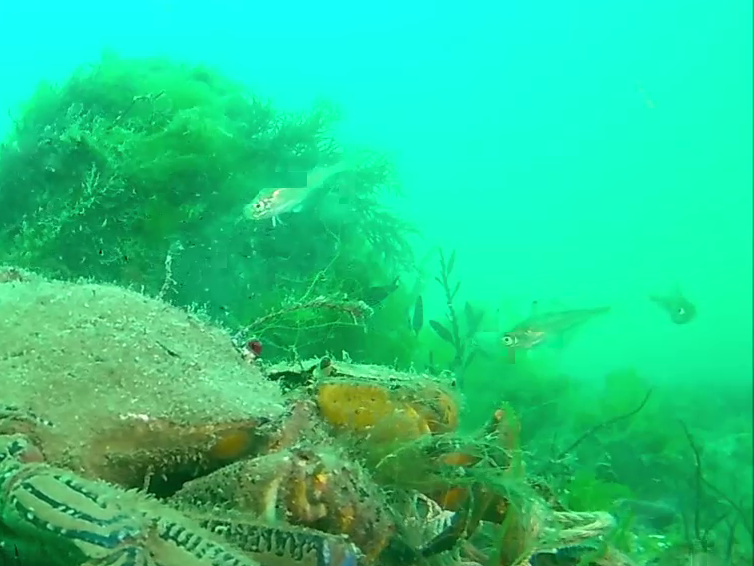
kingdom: Animalia
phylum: Arthropoda
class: Malacostraca
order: Decapoda
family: Polybiidae
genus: Necora
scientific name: Necora puber
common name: Velvet swimming crab
